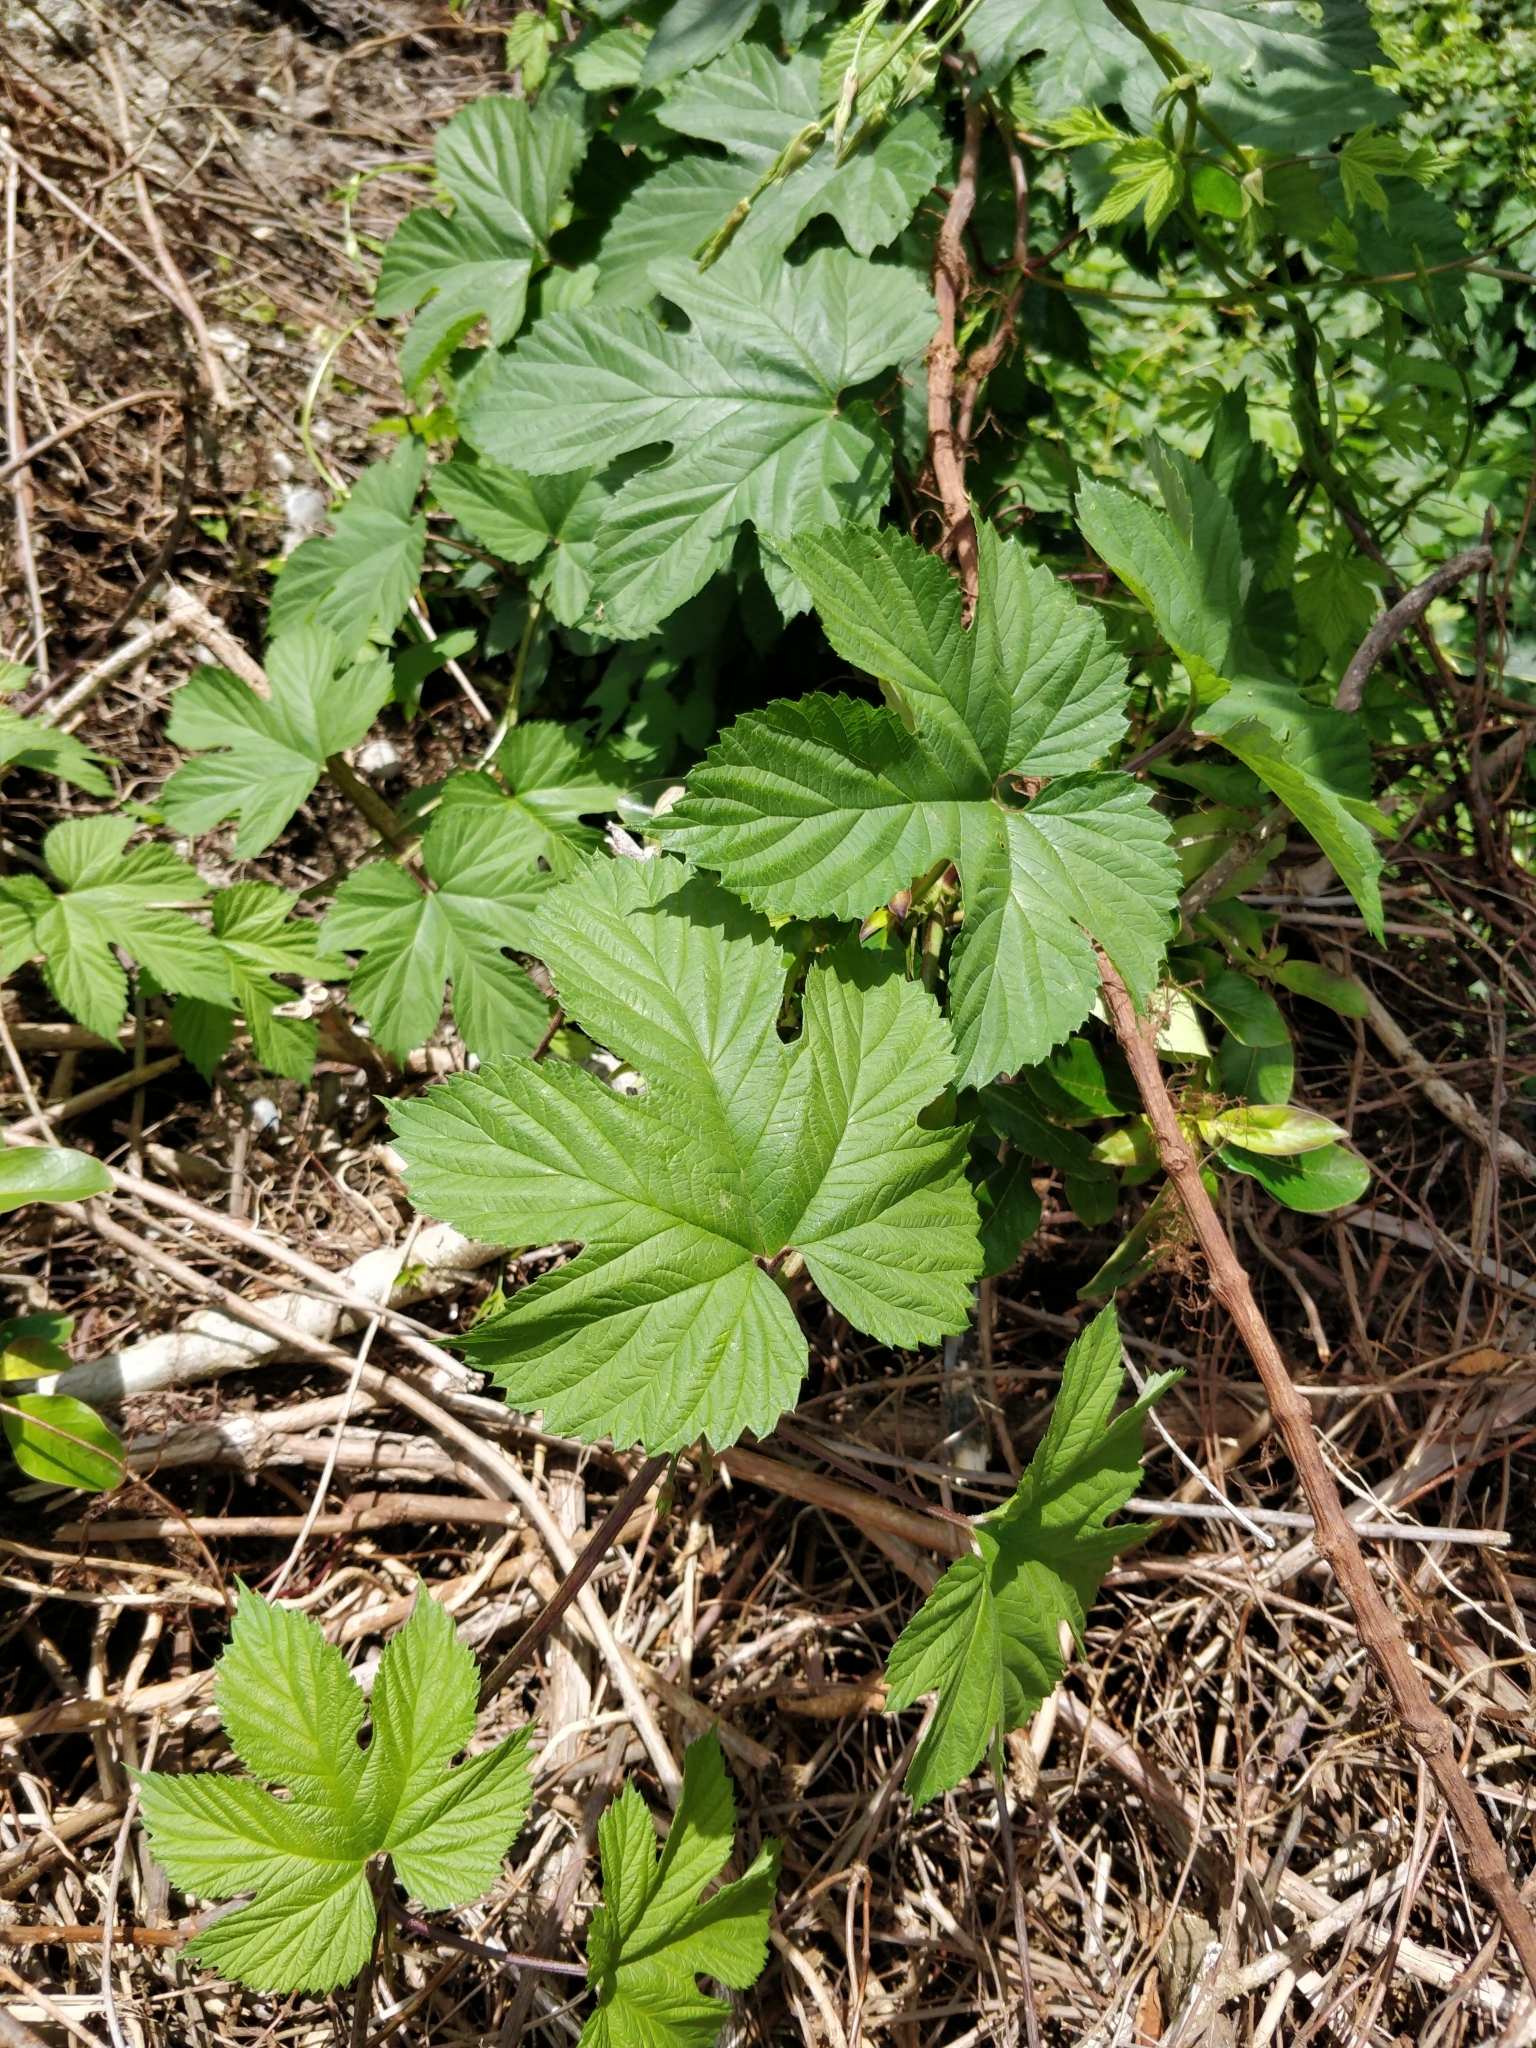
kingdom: Plantae
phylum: Tracheophyta
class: Magnoliopsida
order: Rosales
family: Cannabaceae
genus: Humulus
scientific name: Humulus lupulus
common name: Hop
